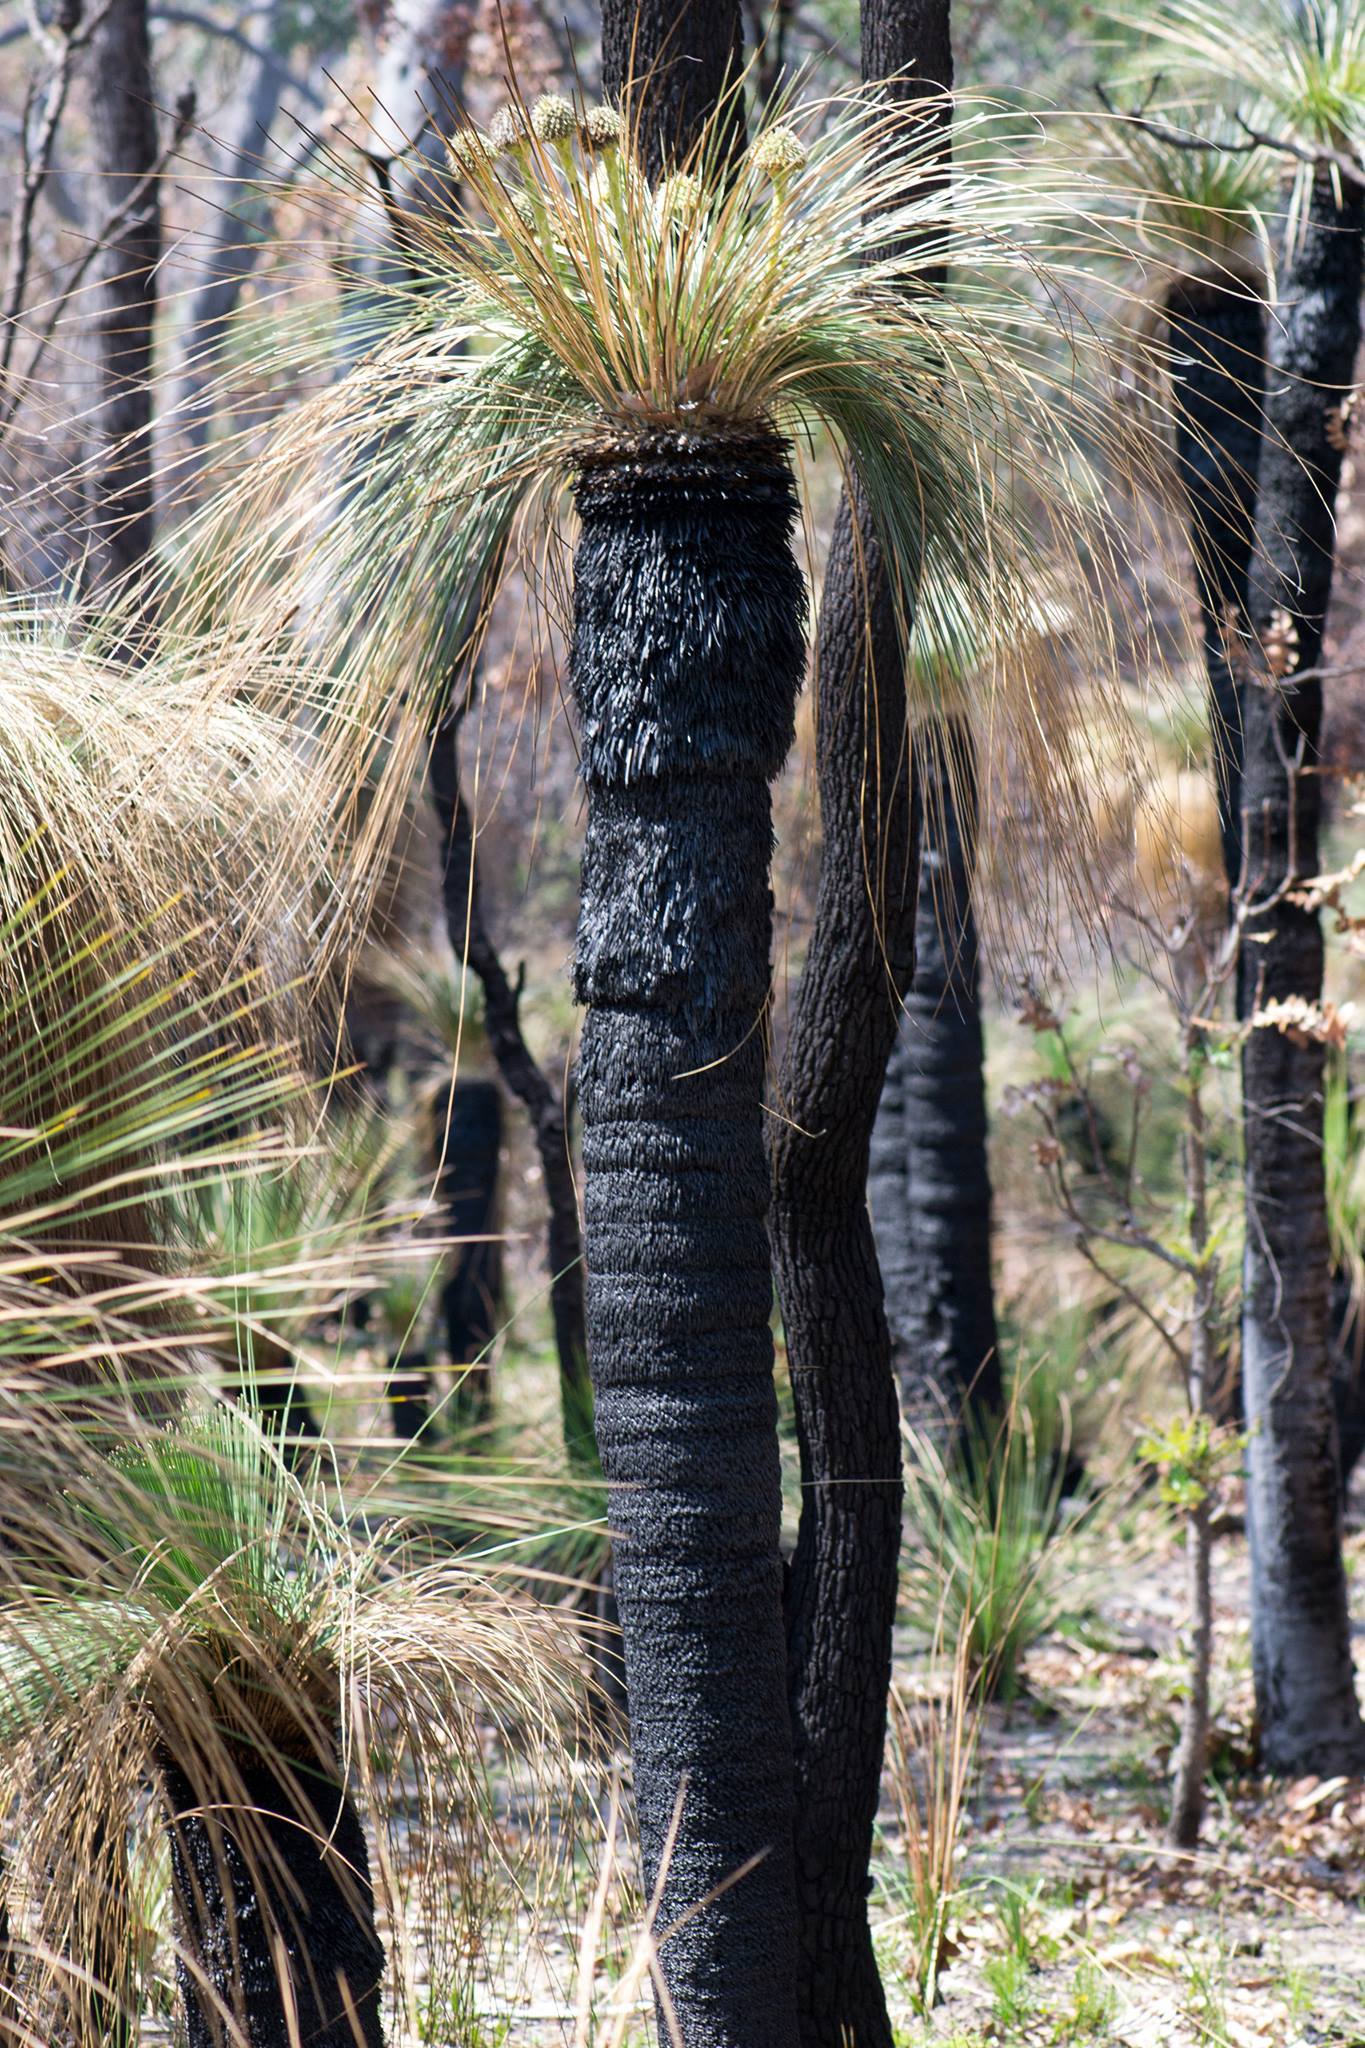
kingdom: Plantae
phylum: Tracheophyta
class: Liliopsida
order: Arecales
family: Dasypogonaceae
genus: Kingia
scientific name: Kingia australis
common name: Black gin
